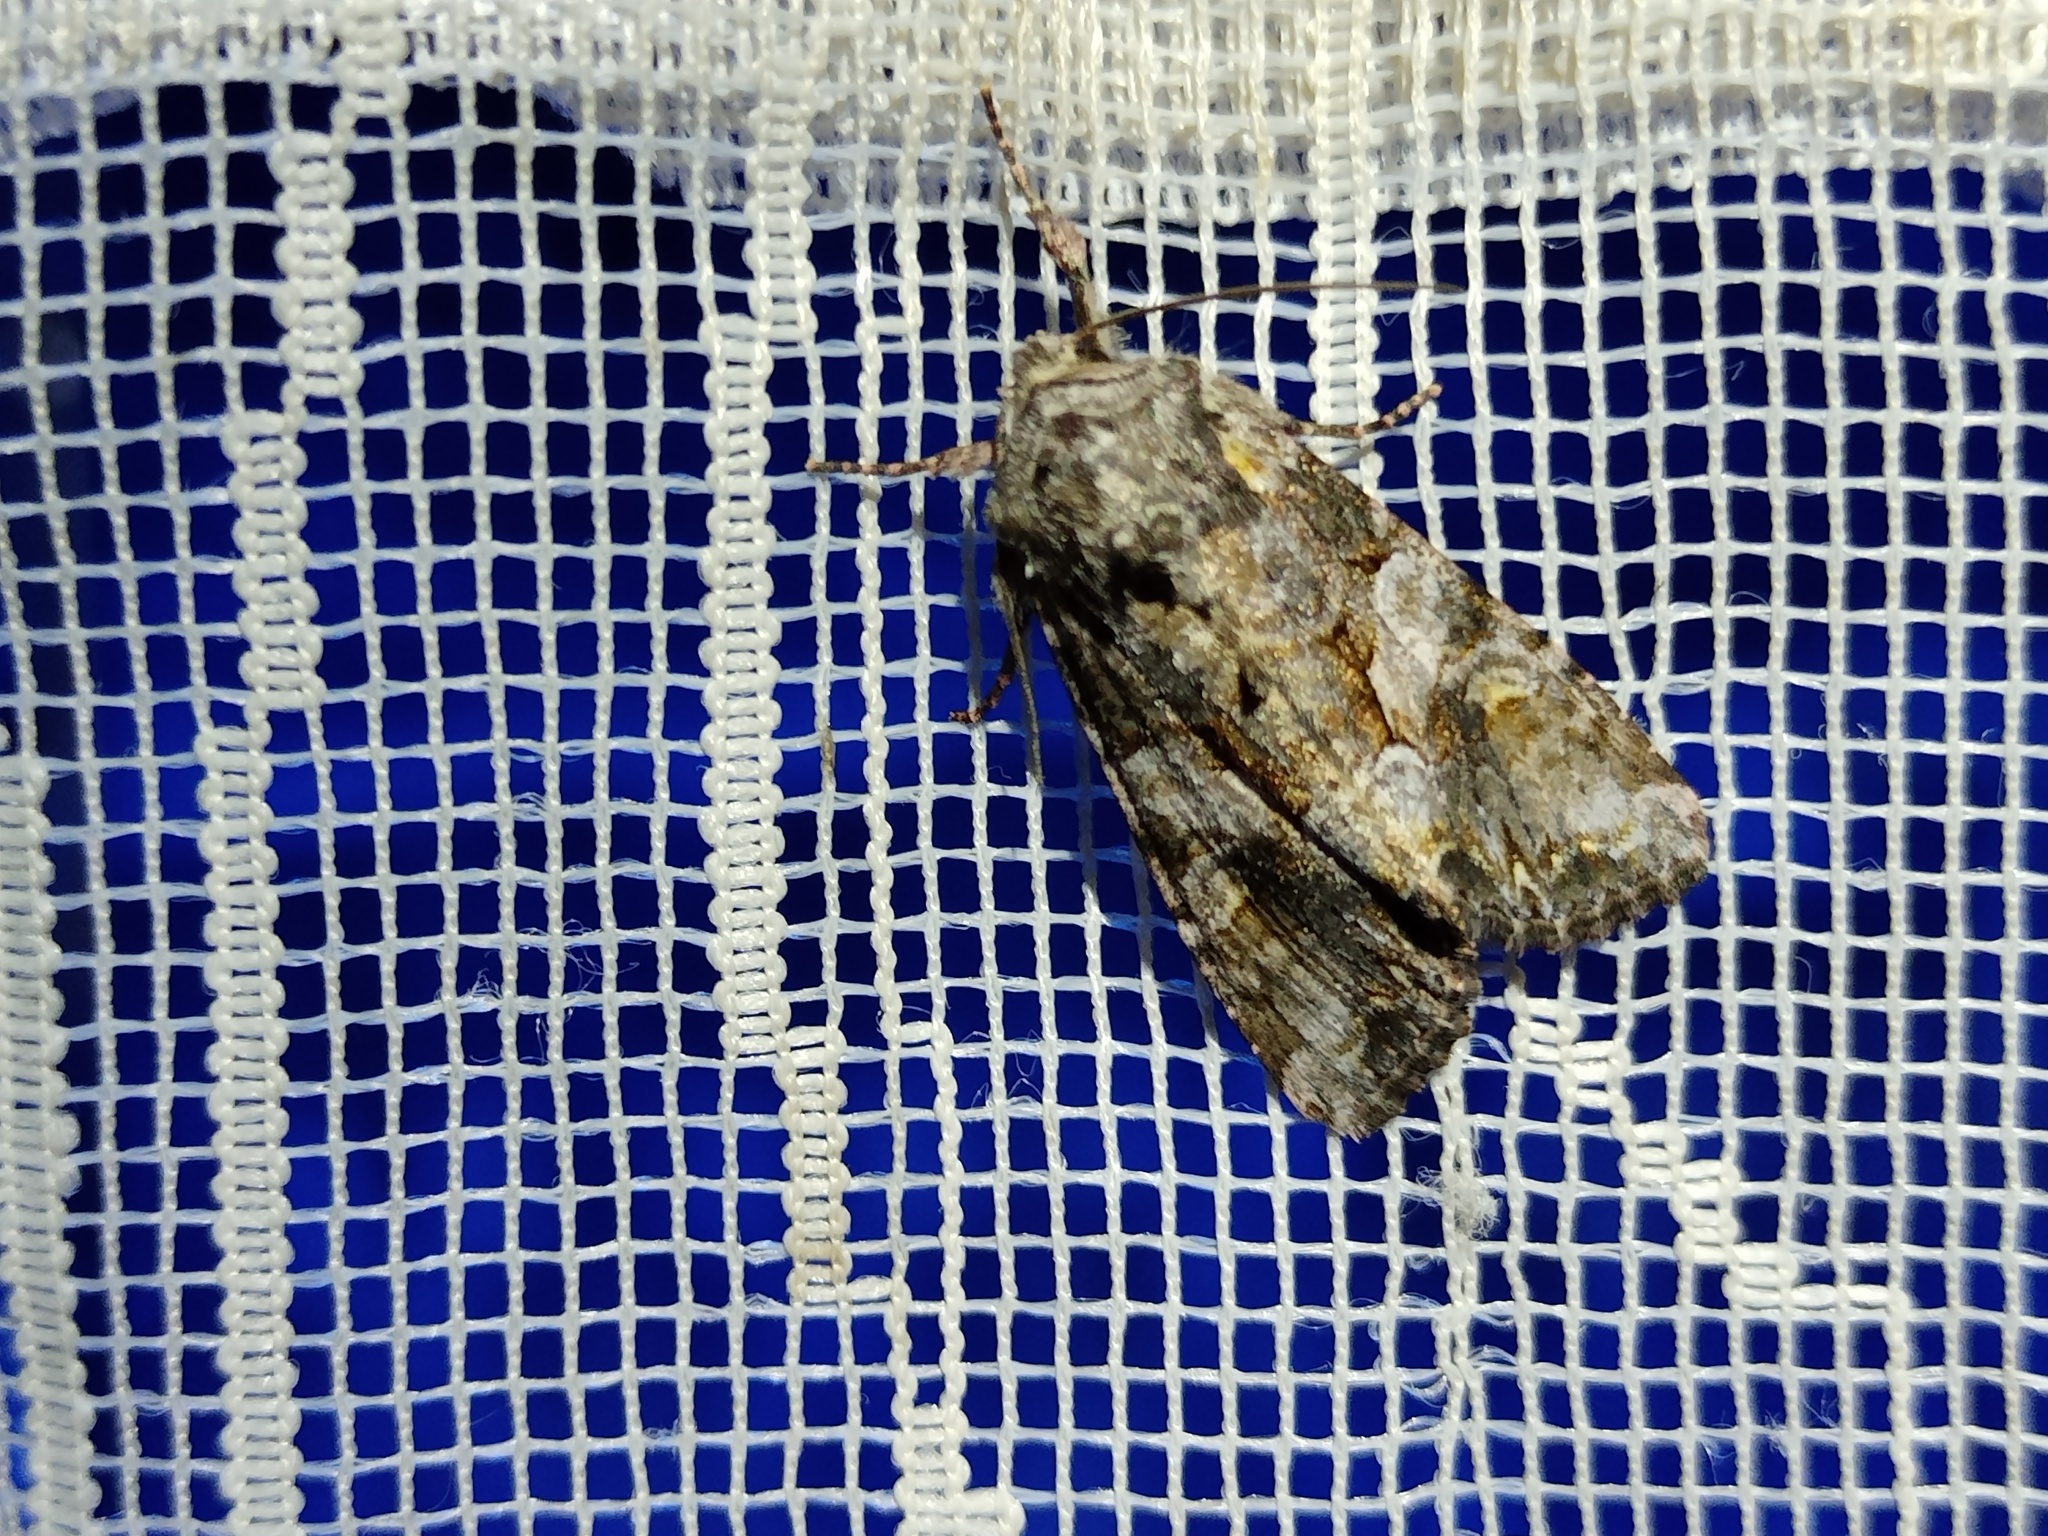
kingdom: Animalia
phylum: Arthropoda
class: Insecta
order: Lepidoptera
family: Noctuidae
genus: Lacanobia
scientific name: Lacanobia contigua
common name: Beautiful brocade
